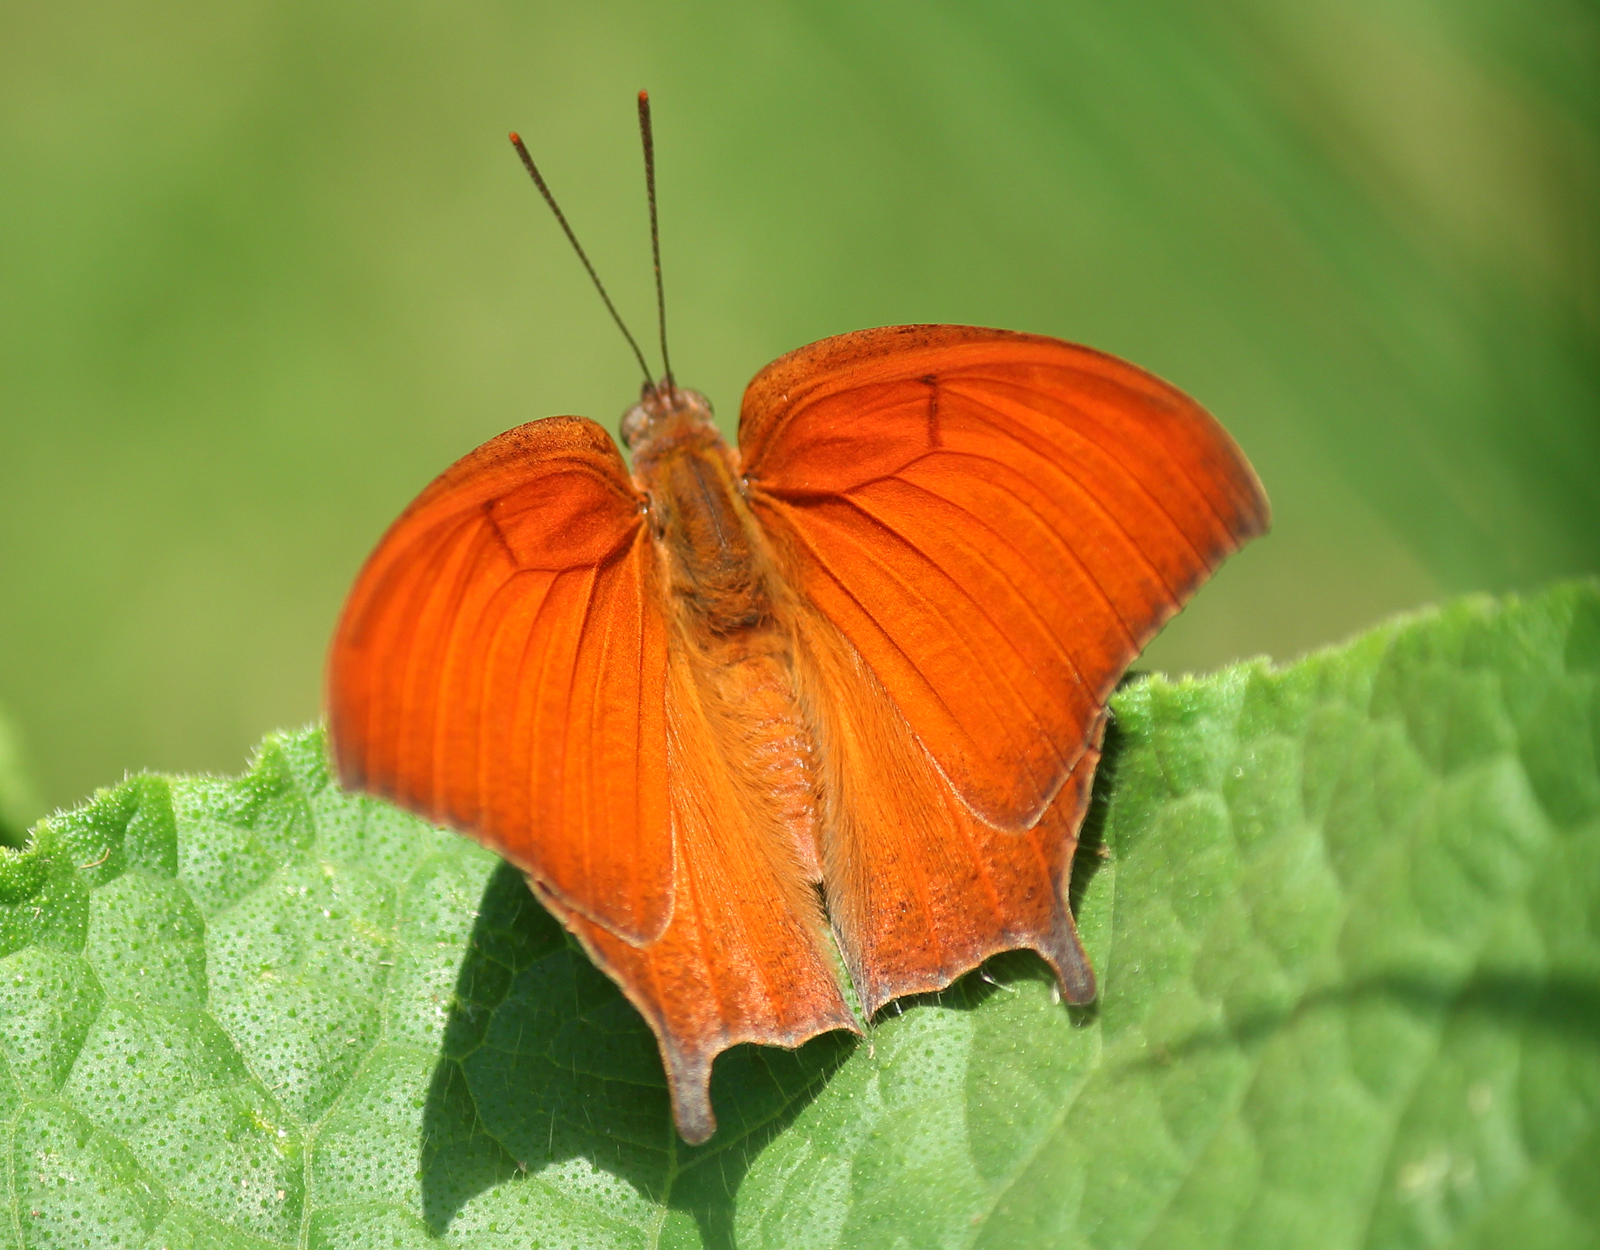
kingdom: Animalia
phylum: Arthropoda
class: Insecta
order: Lepidoptera
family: Nymphalidae
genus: Anaea
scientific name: Anaea andria
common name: Goatweed leafwing
